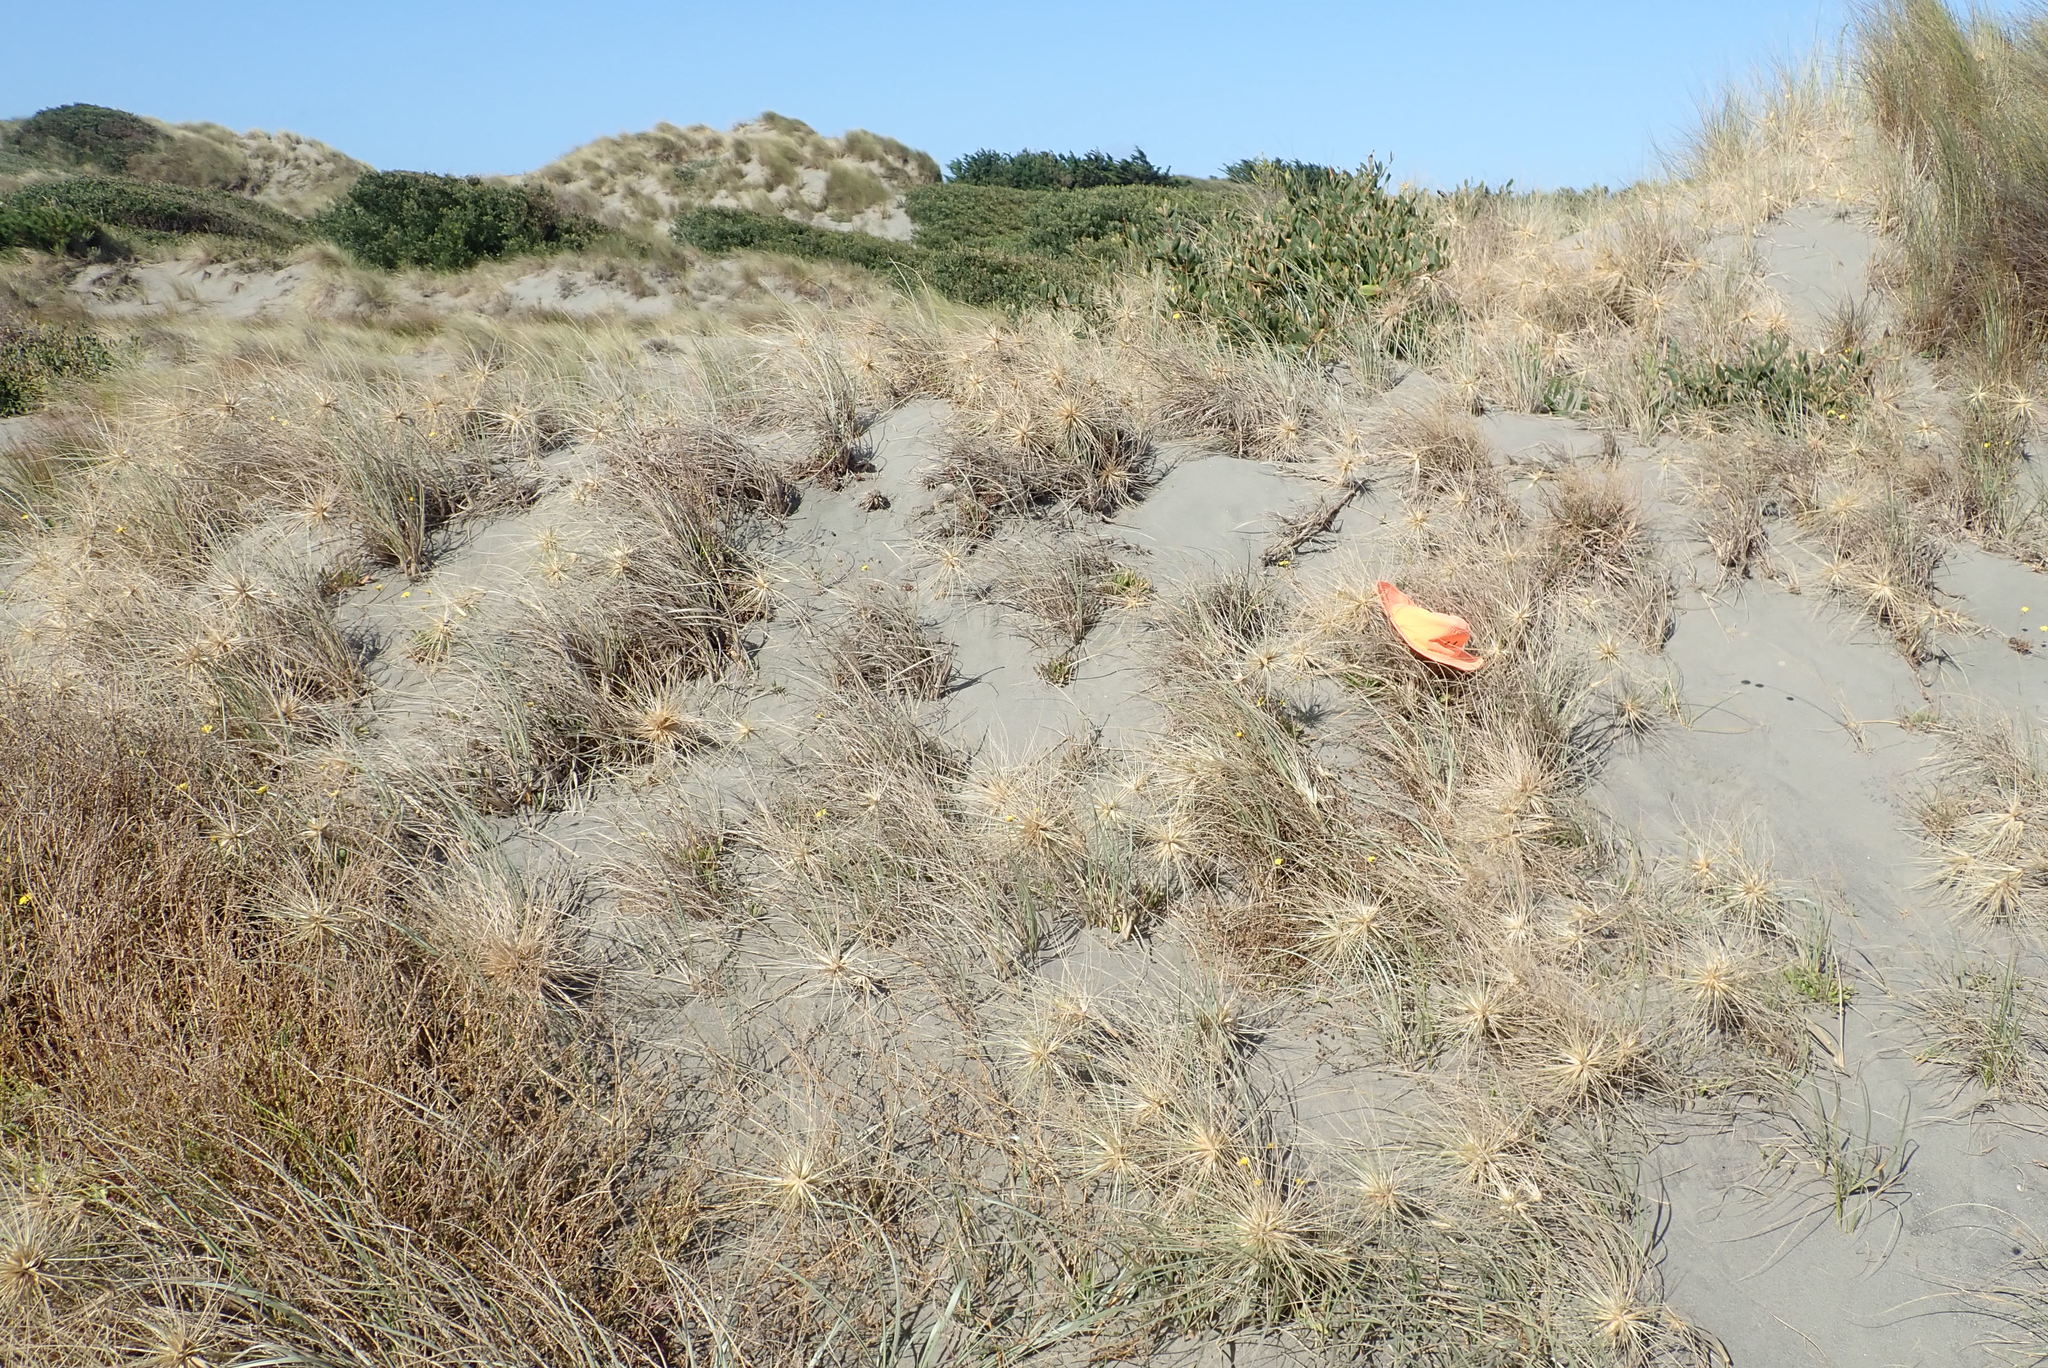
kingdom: Animalia
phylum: Arthropoda
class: Arachnida
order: Araneae
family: Theridiidae
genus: Latrodectus
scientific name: Latrodectus katipo
